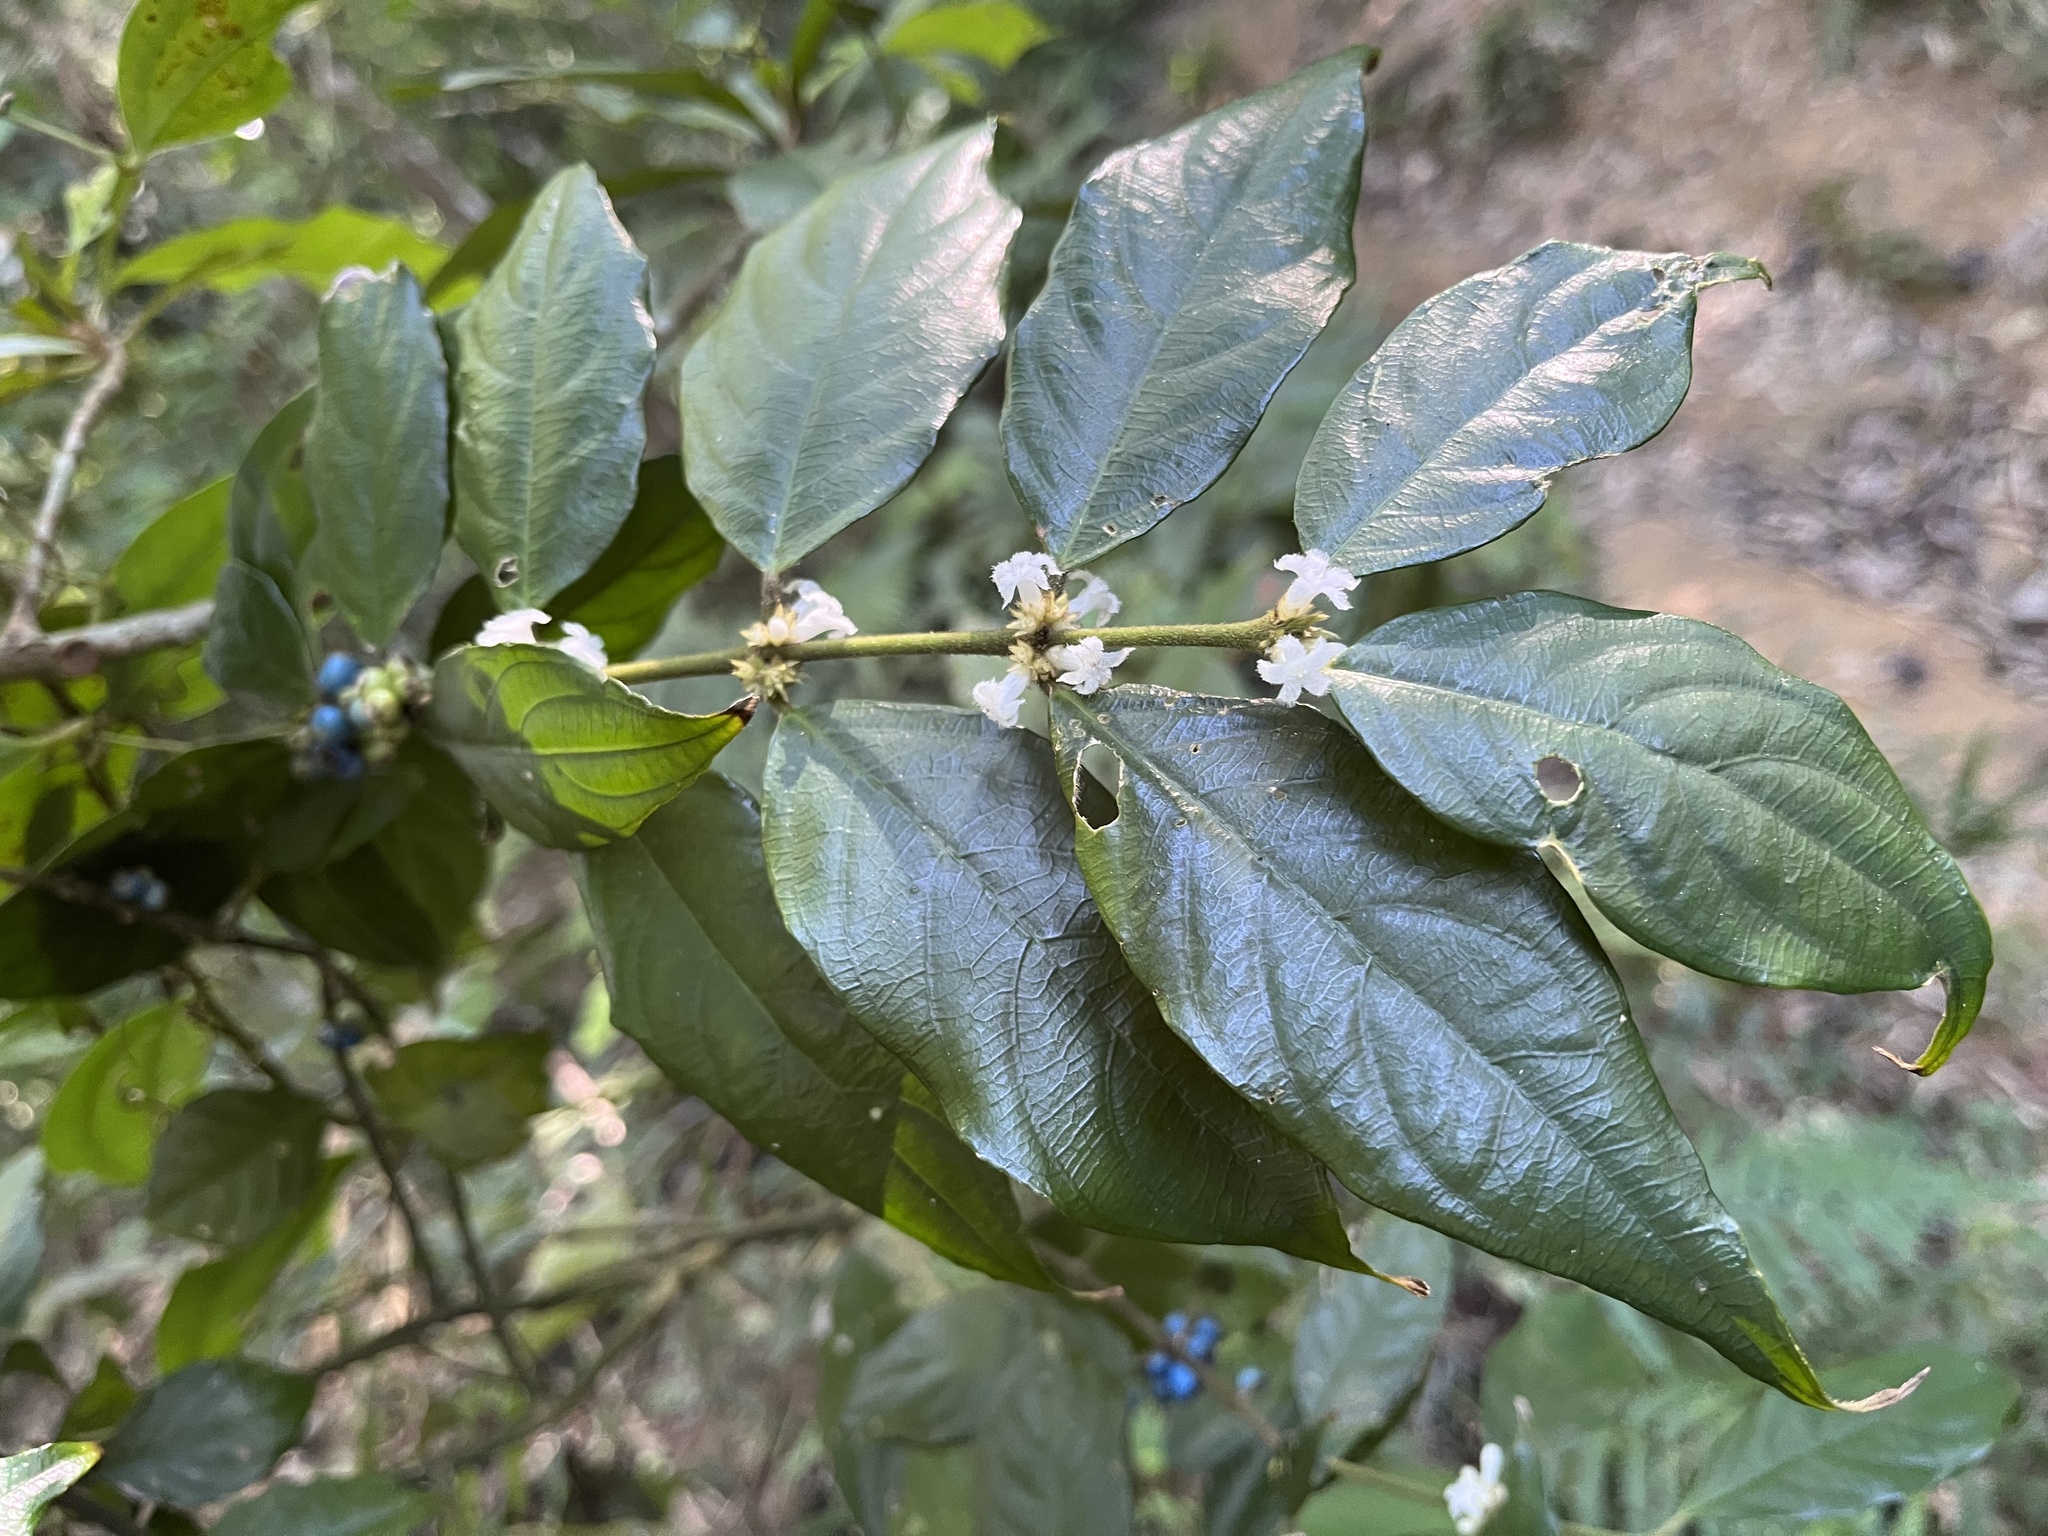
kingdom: Plantae
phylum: Tracheophyta
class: Magnoliopsida
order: Gentianales
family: Rubiaceae
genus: Lasianthus
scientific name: Lasianthus fordii
